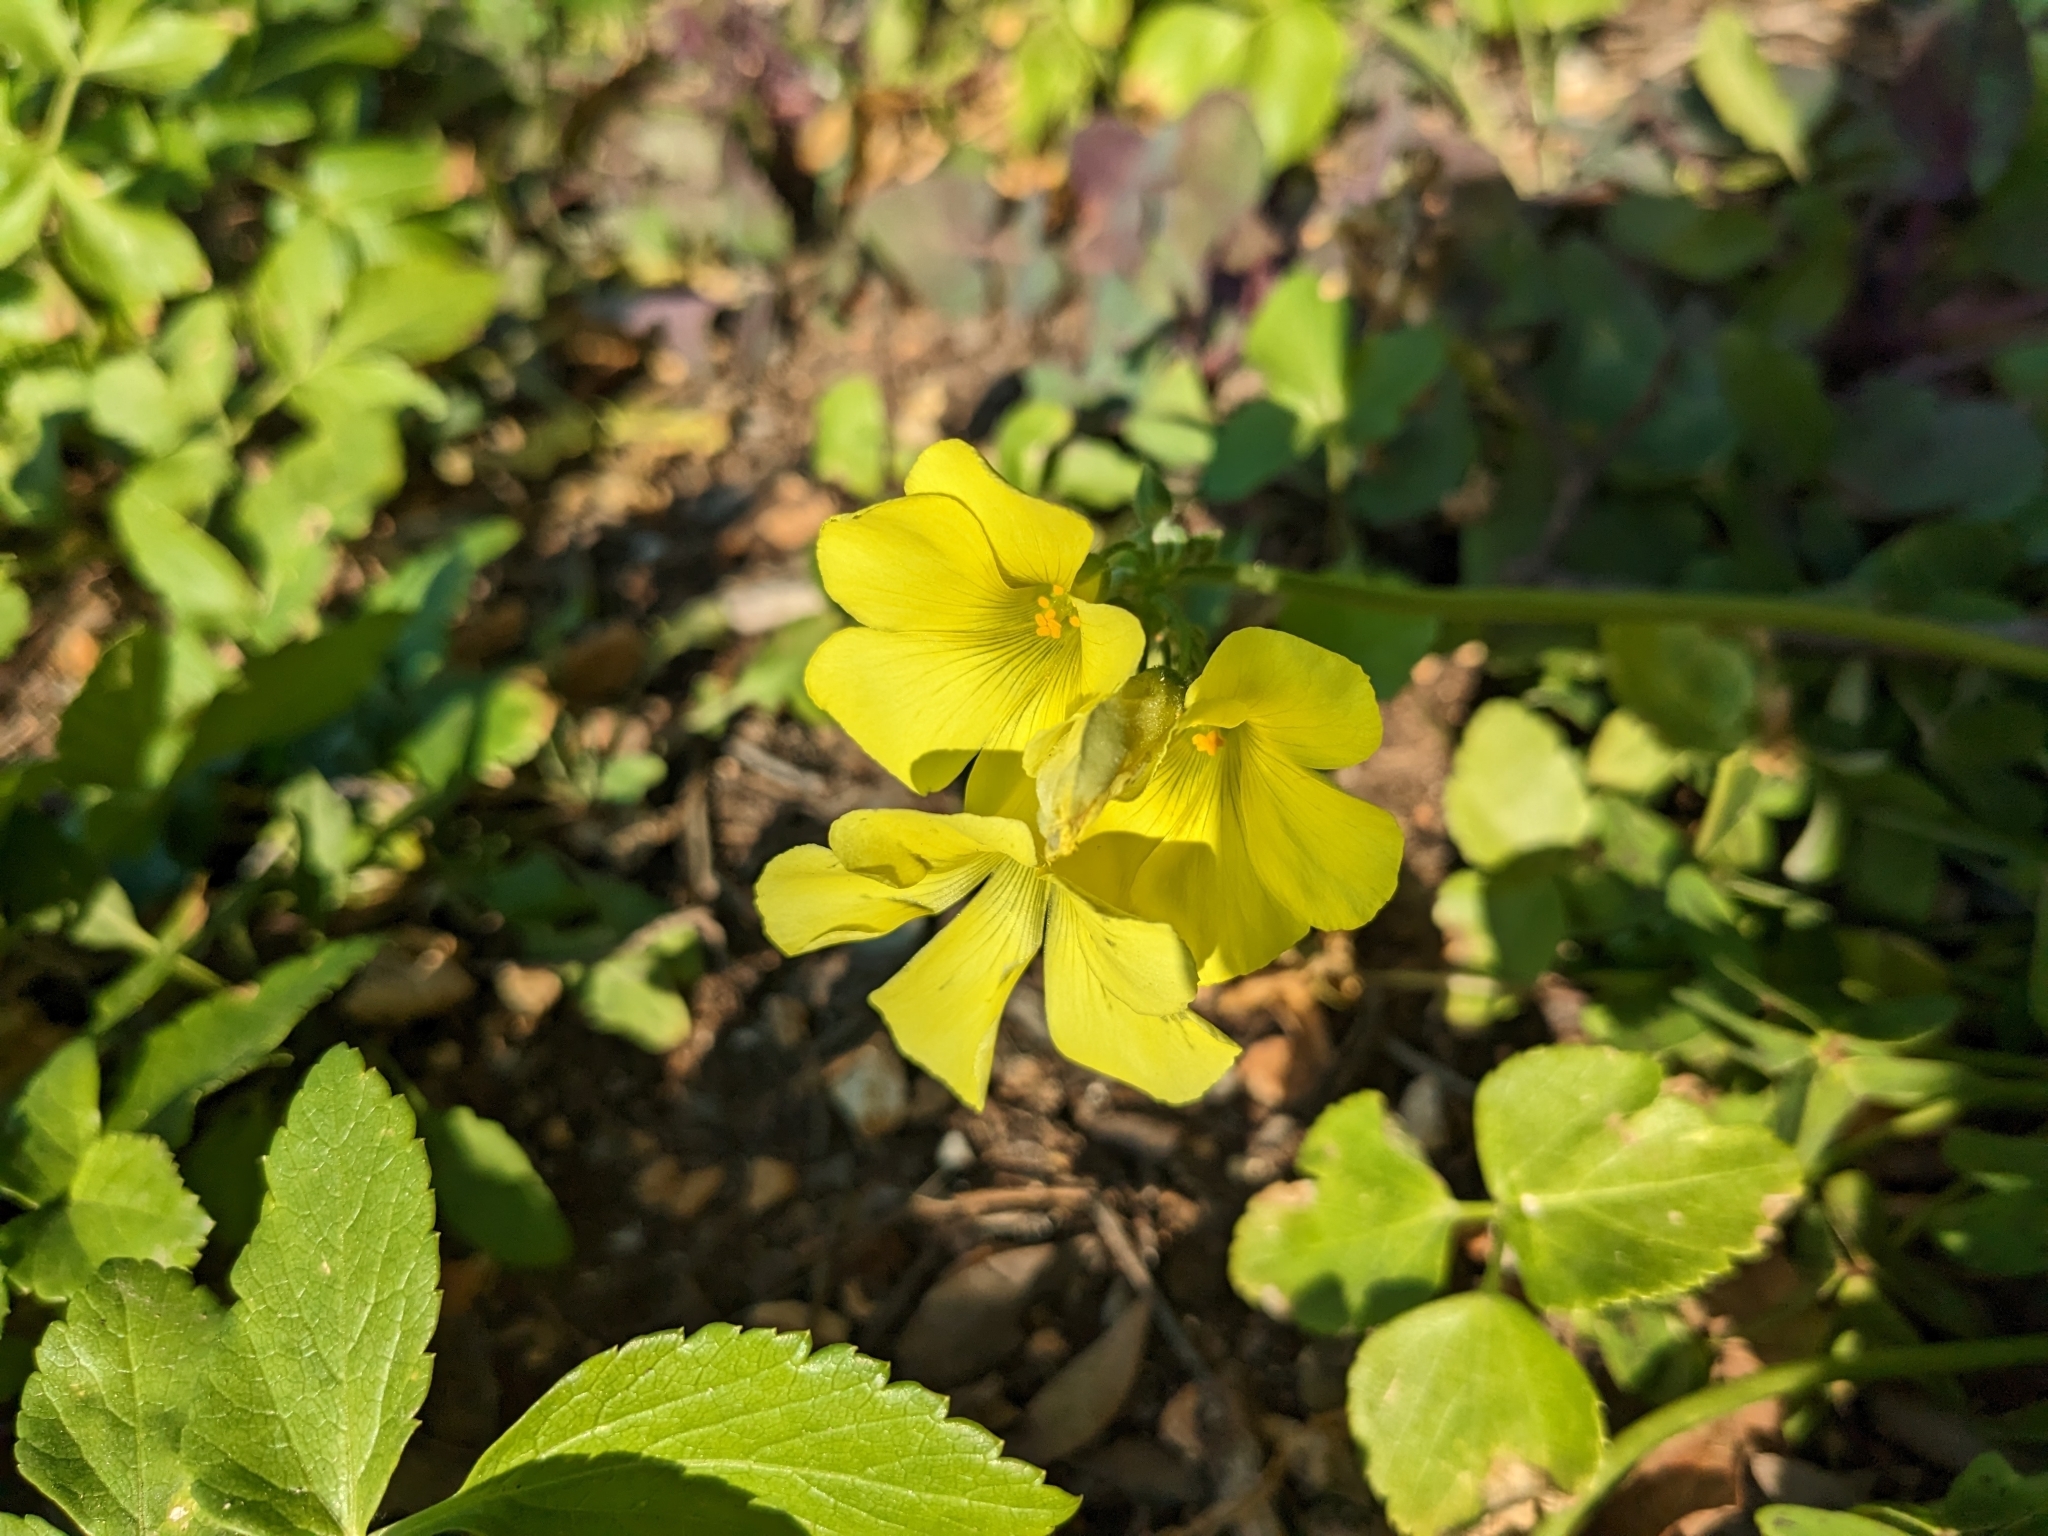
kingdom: Plantae
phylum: Tracheophyta
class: Magnoliopsida
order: Oxalidales
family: Oxalidaceae
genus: Oxalis
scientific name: Oxalis pes-caprae
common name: Bermuda-buttercup
